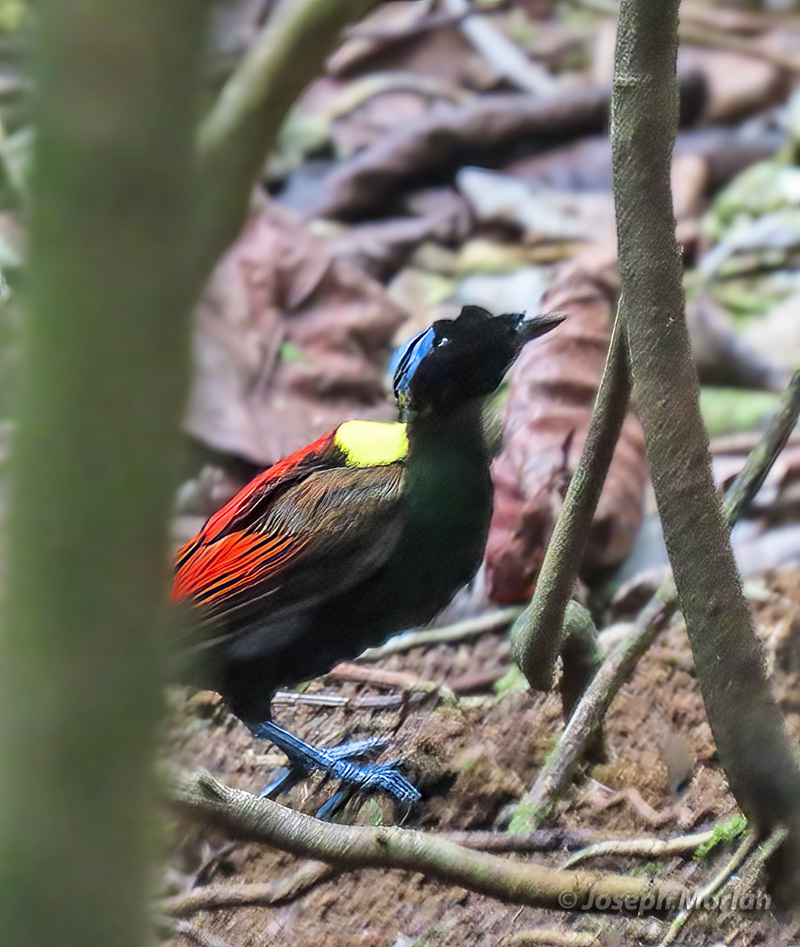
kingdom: Animalia
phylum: Chordata
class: Aves
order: Passeriformes
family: Paradisaeidae
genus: Diphyllodes
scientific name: Diphyllodes respublica
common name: Wilson's bird-of-paradise
